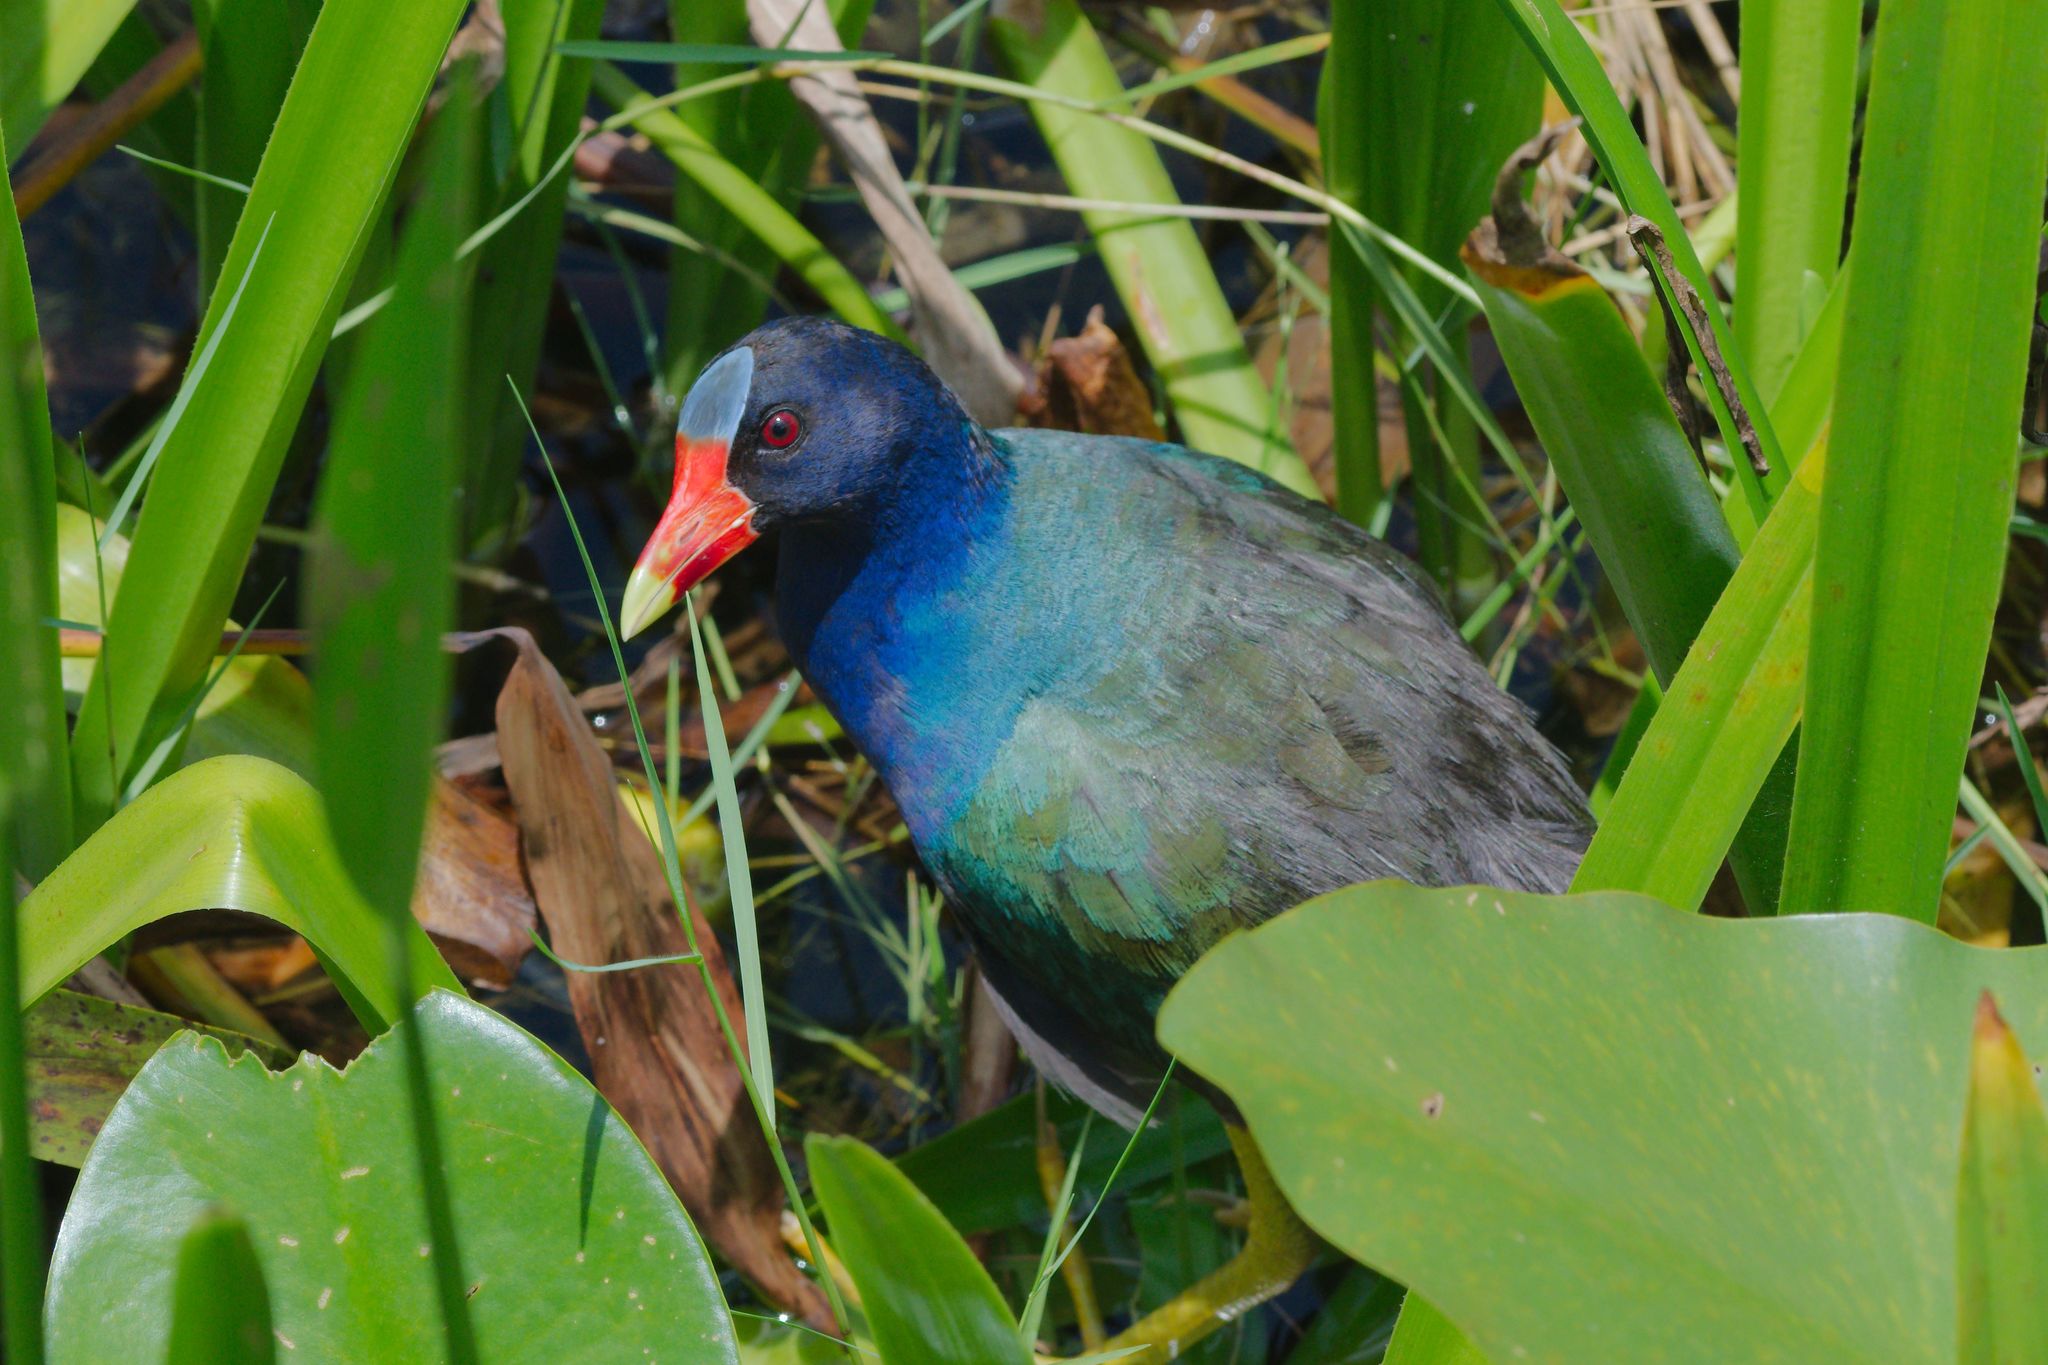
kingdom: Animalia
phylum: Chordata
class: Aves
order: Gruiformes
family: Rallidae
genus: Porphyrio
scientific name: Porphyrio martinica
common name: Purple gallinule
